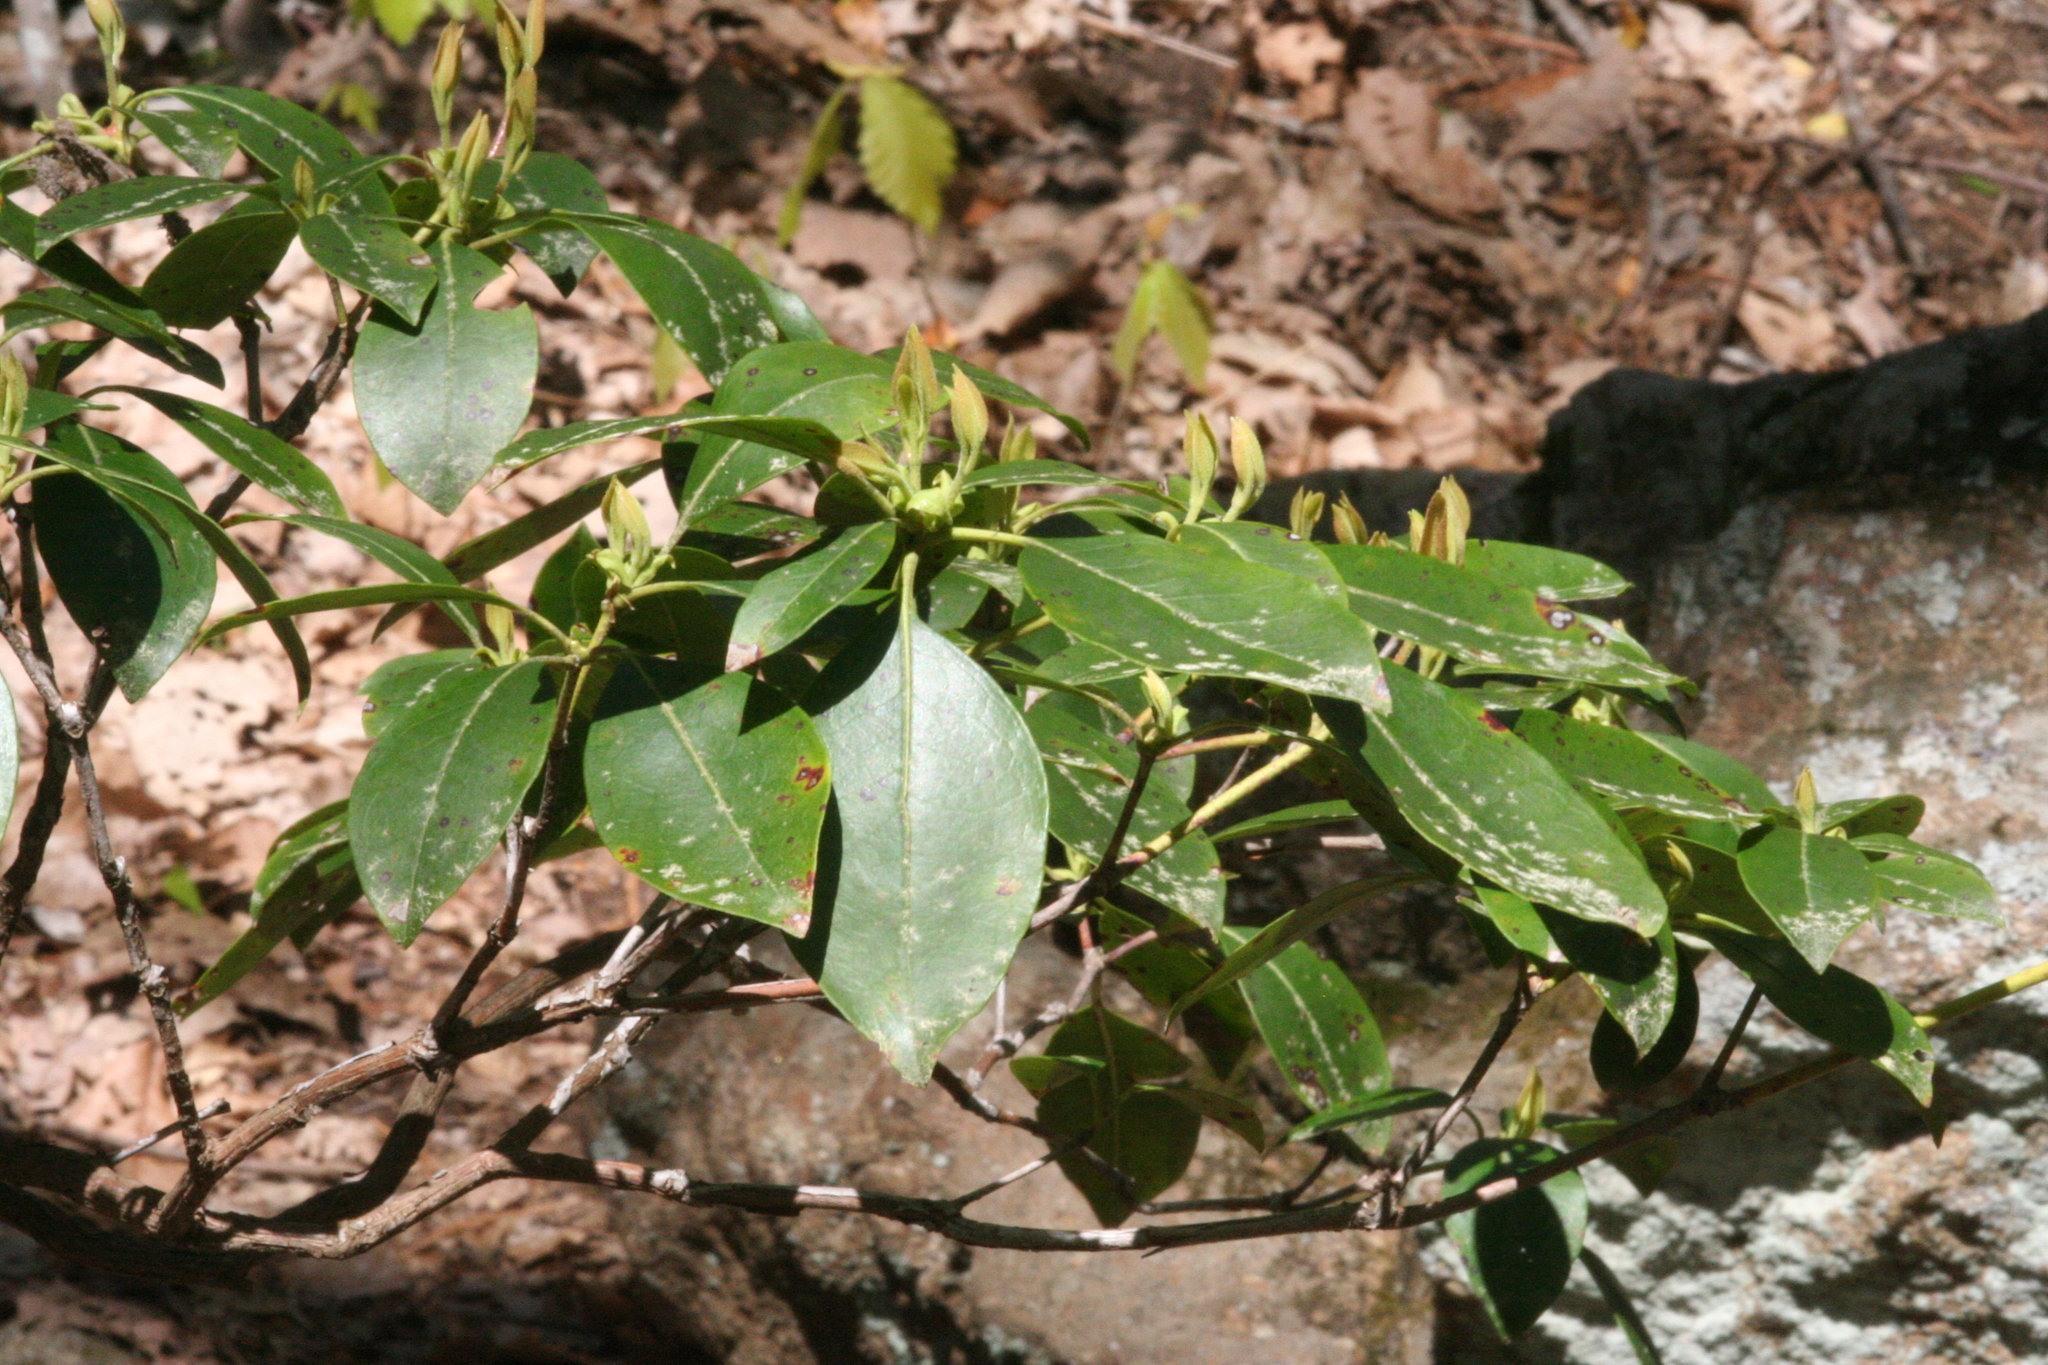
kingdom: Plantae
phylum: Tracheophyta
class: Magnoliopsida
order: Ericales
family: Ericaceae
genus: Kalmia
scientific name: Kalmia latifolia
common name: Mountain-laurel
